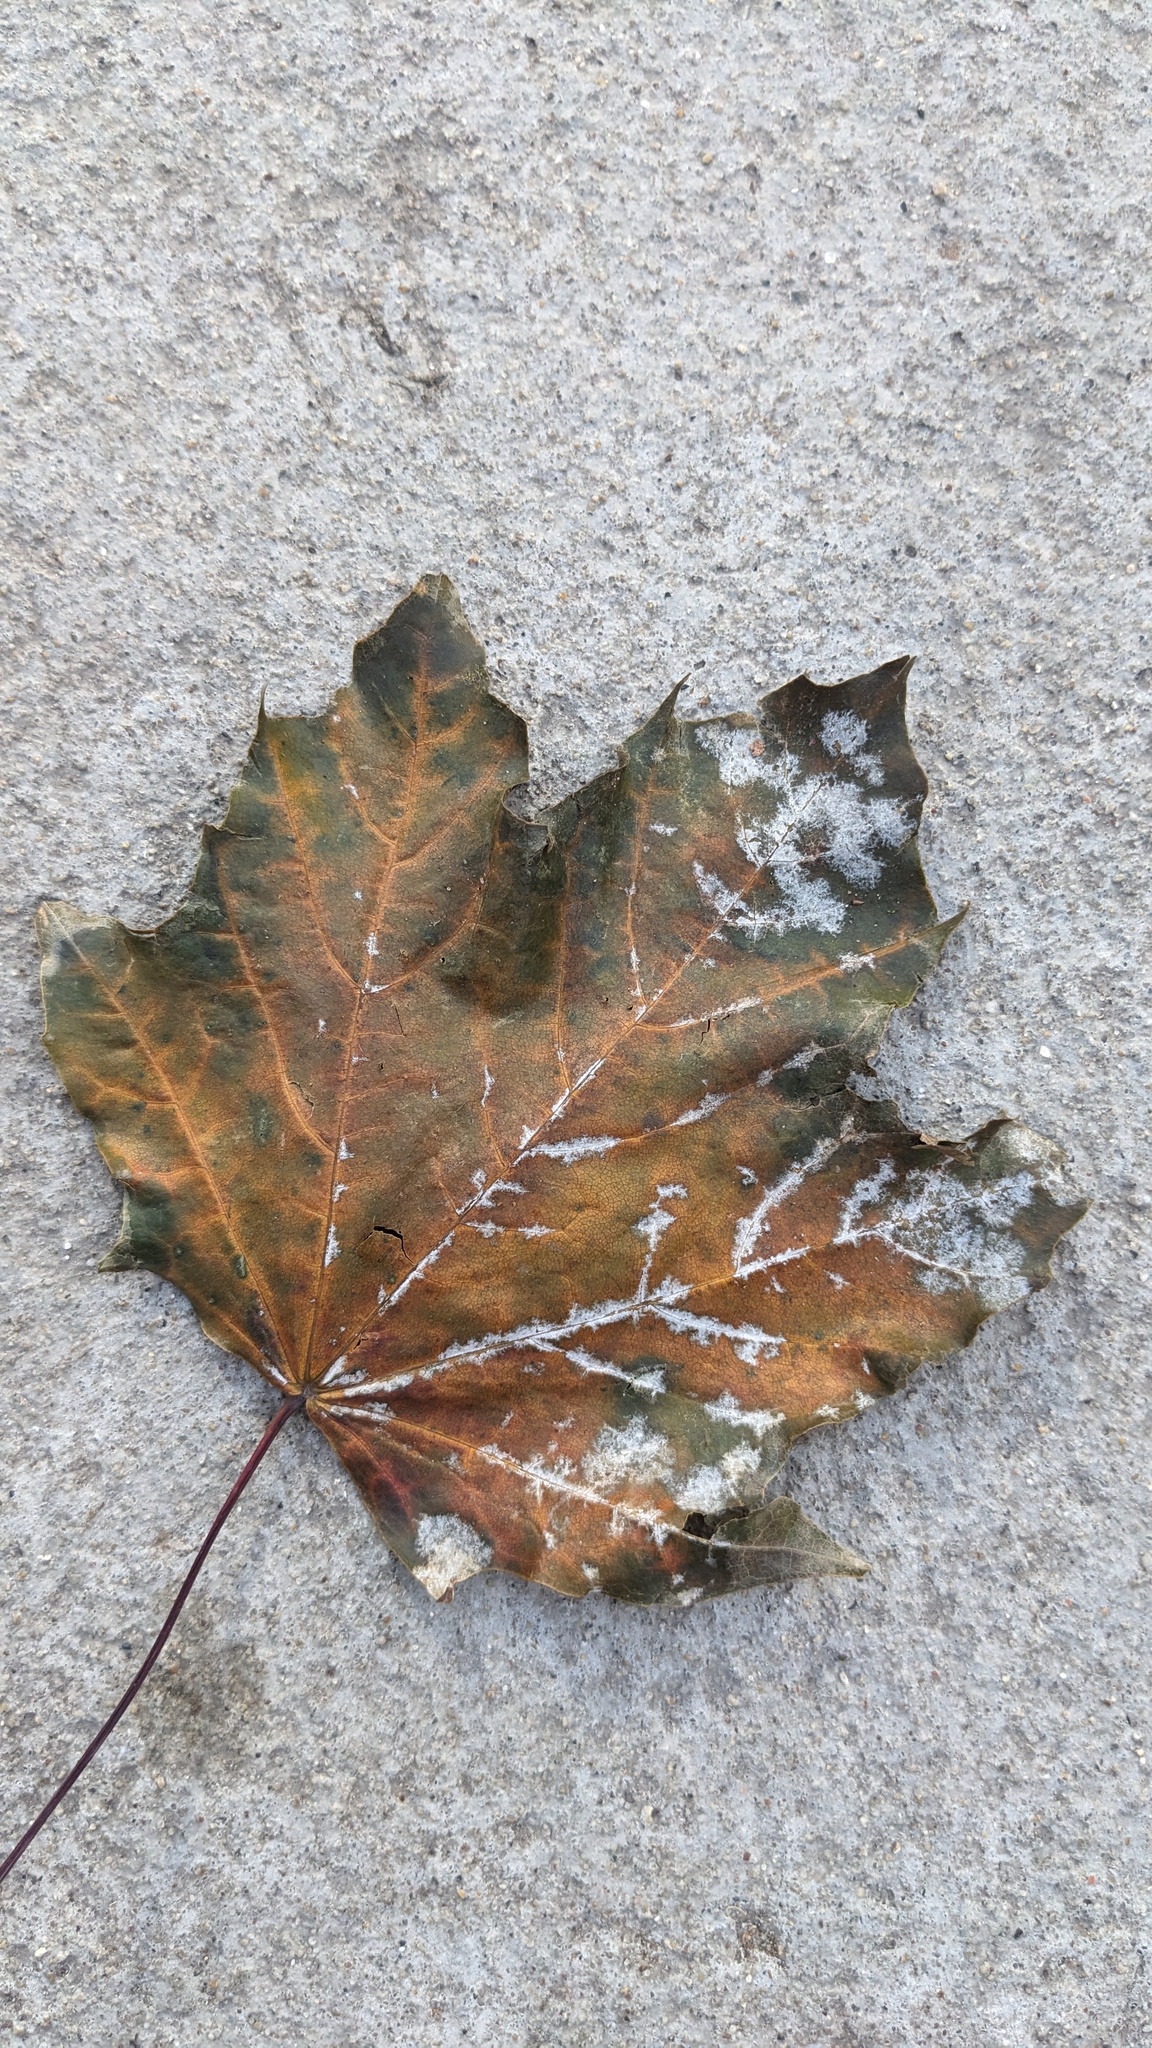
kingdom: Fungi
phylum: Ascomycota
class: Leotiomycetes
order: Helotiales
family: Erysiphaceae
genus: Sawadaea
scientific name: Sawadaea tulasnei
